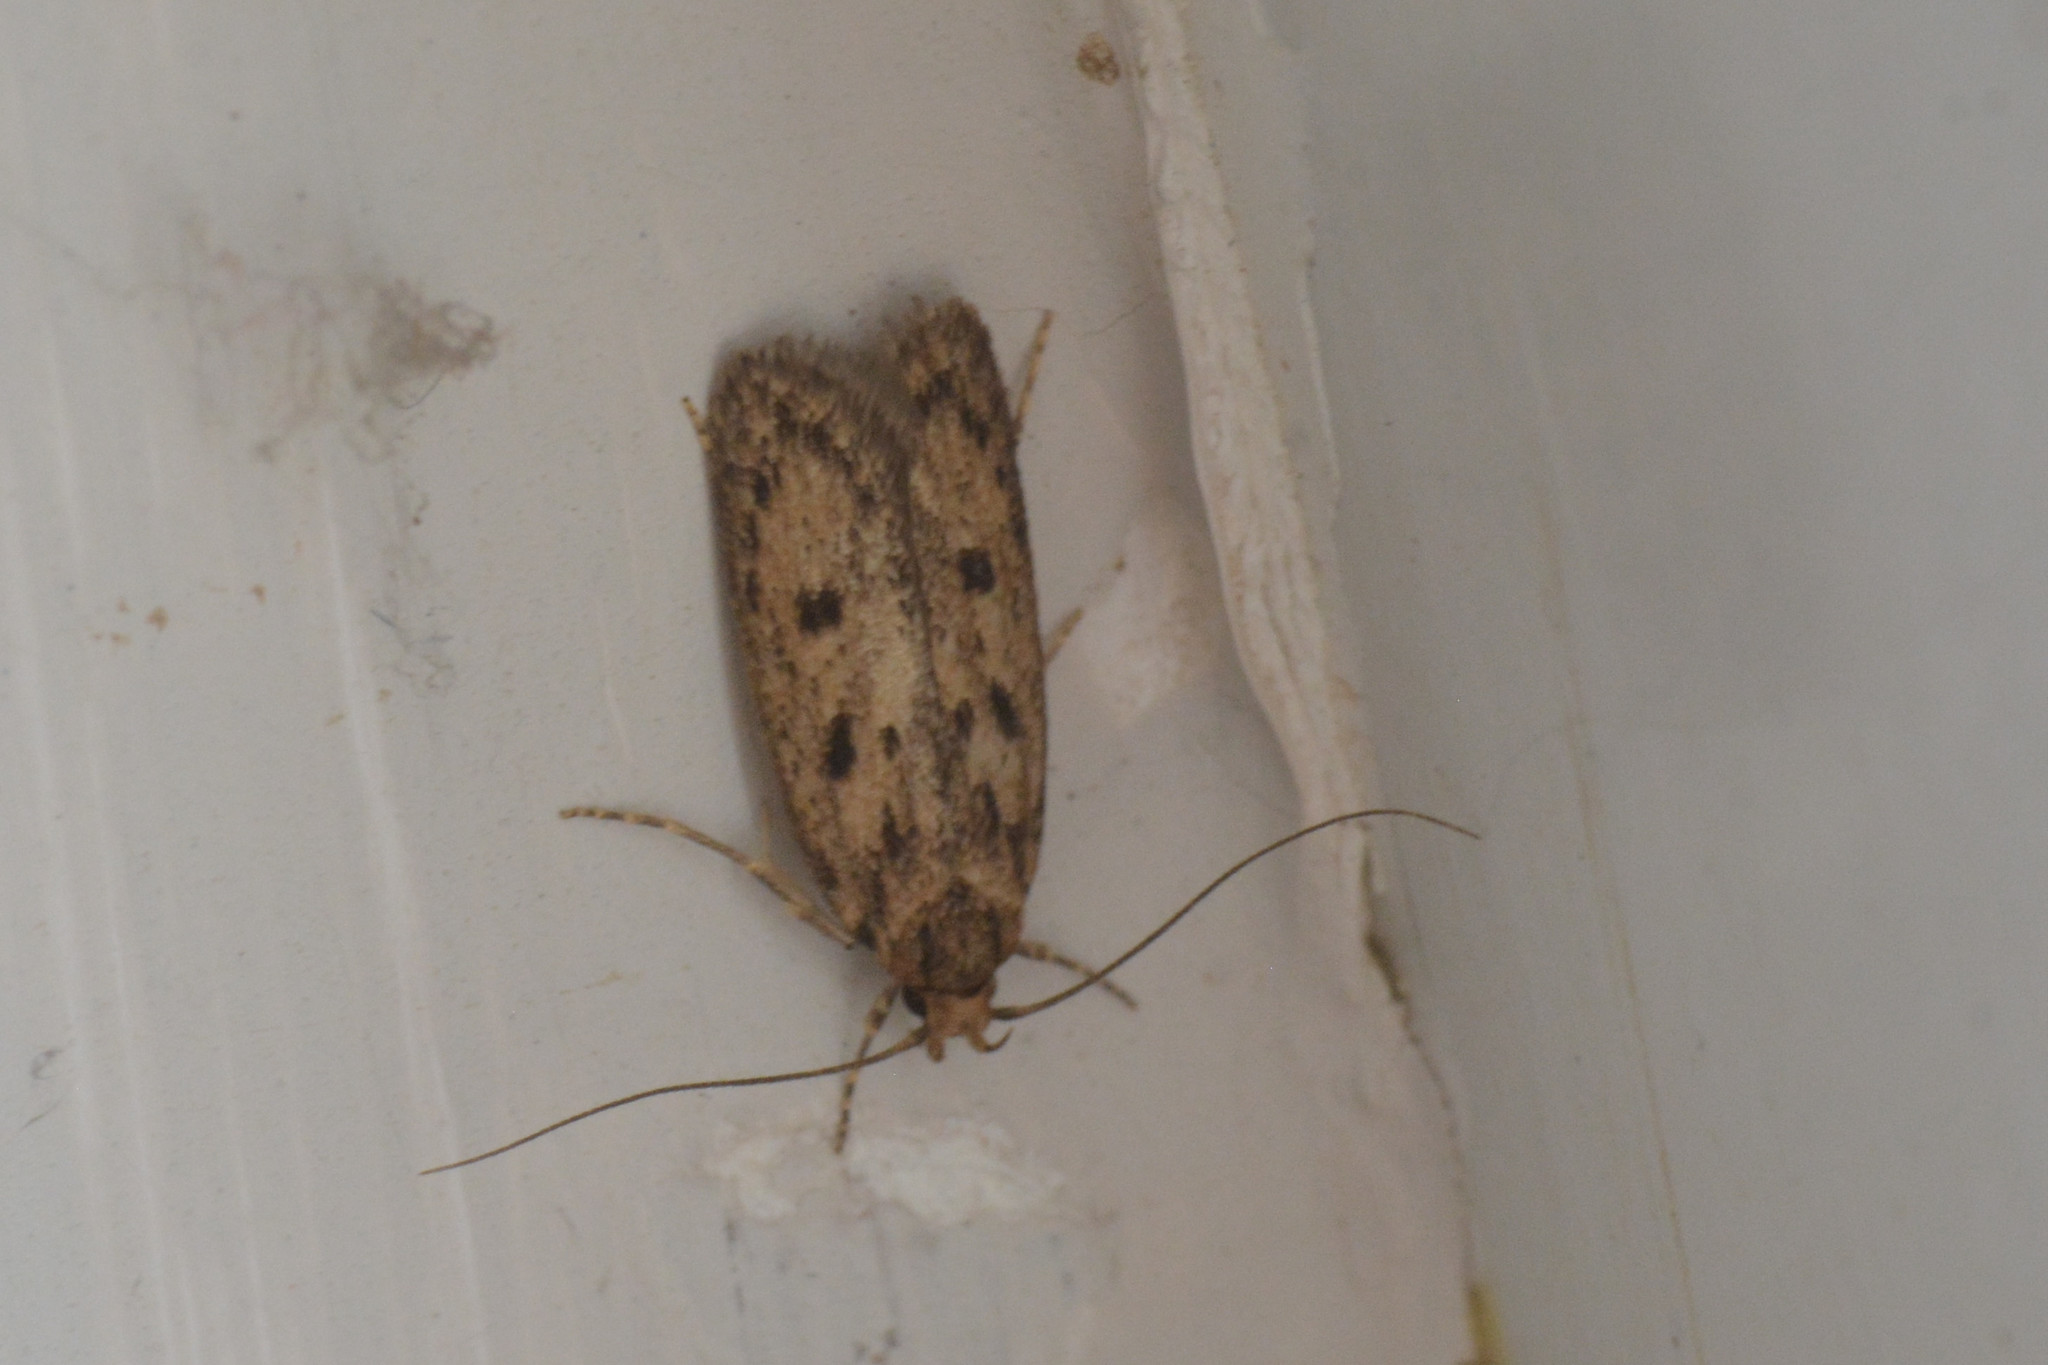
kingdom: Animalia
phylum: Arthropoda
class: Insecta
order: Lepidoptera
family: Oecophoridae
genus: Hofmannophila
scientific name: Hofmannophila pseudospretella
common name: Brown house moth
